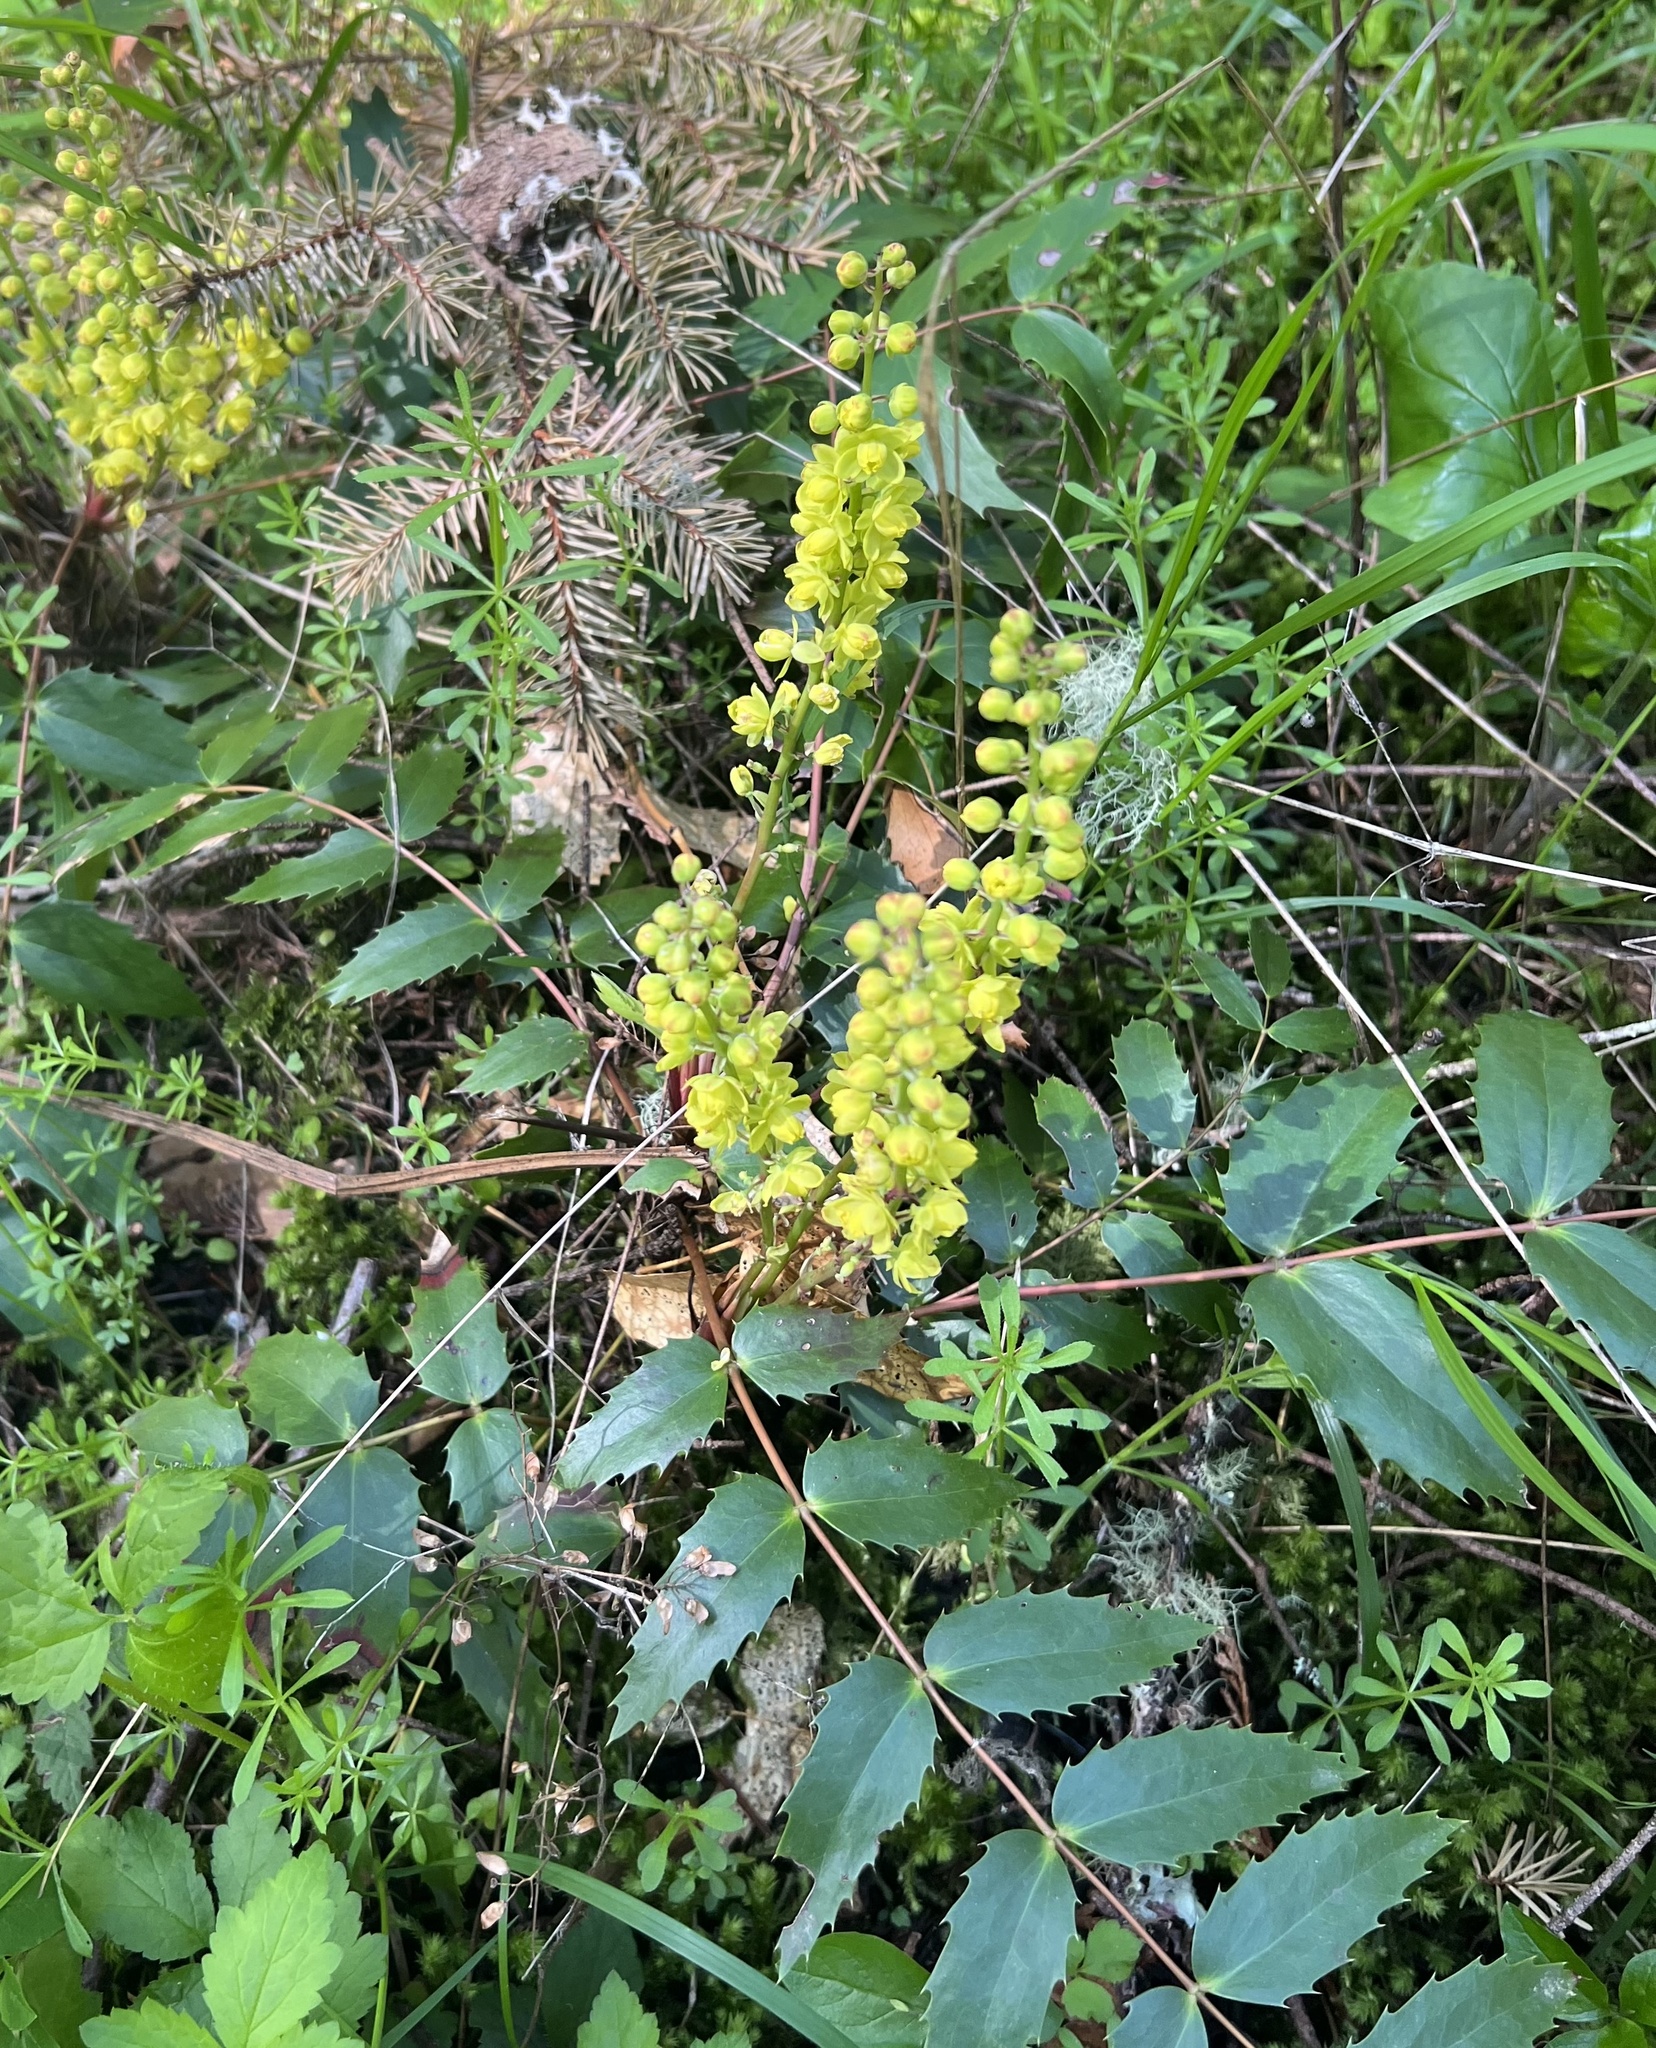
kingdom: Plantae
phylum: Tracheophyta
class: Magnoliopsida
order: Ranunculales
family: Berberidaceae
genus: Mahonia
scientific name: Mahonia nervosa
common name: Cascade oregon-grape
